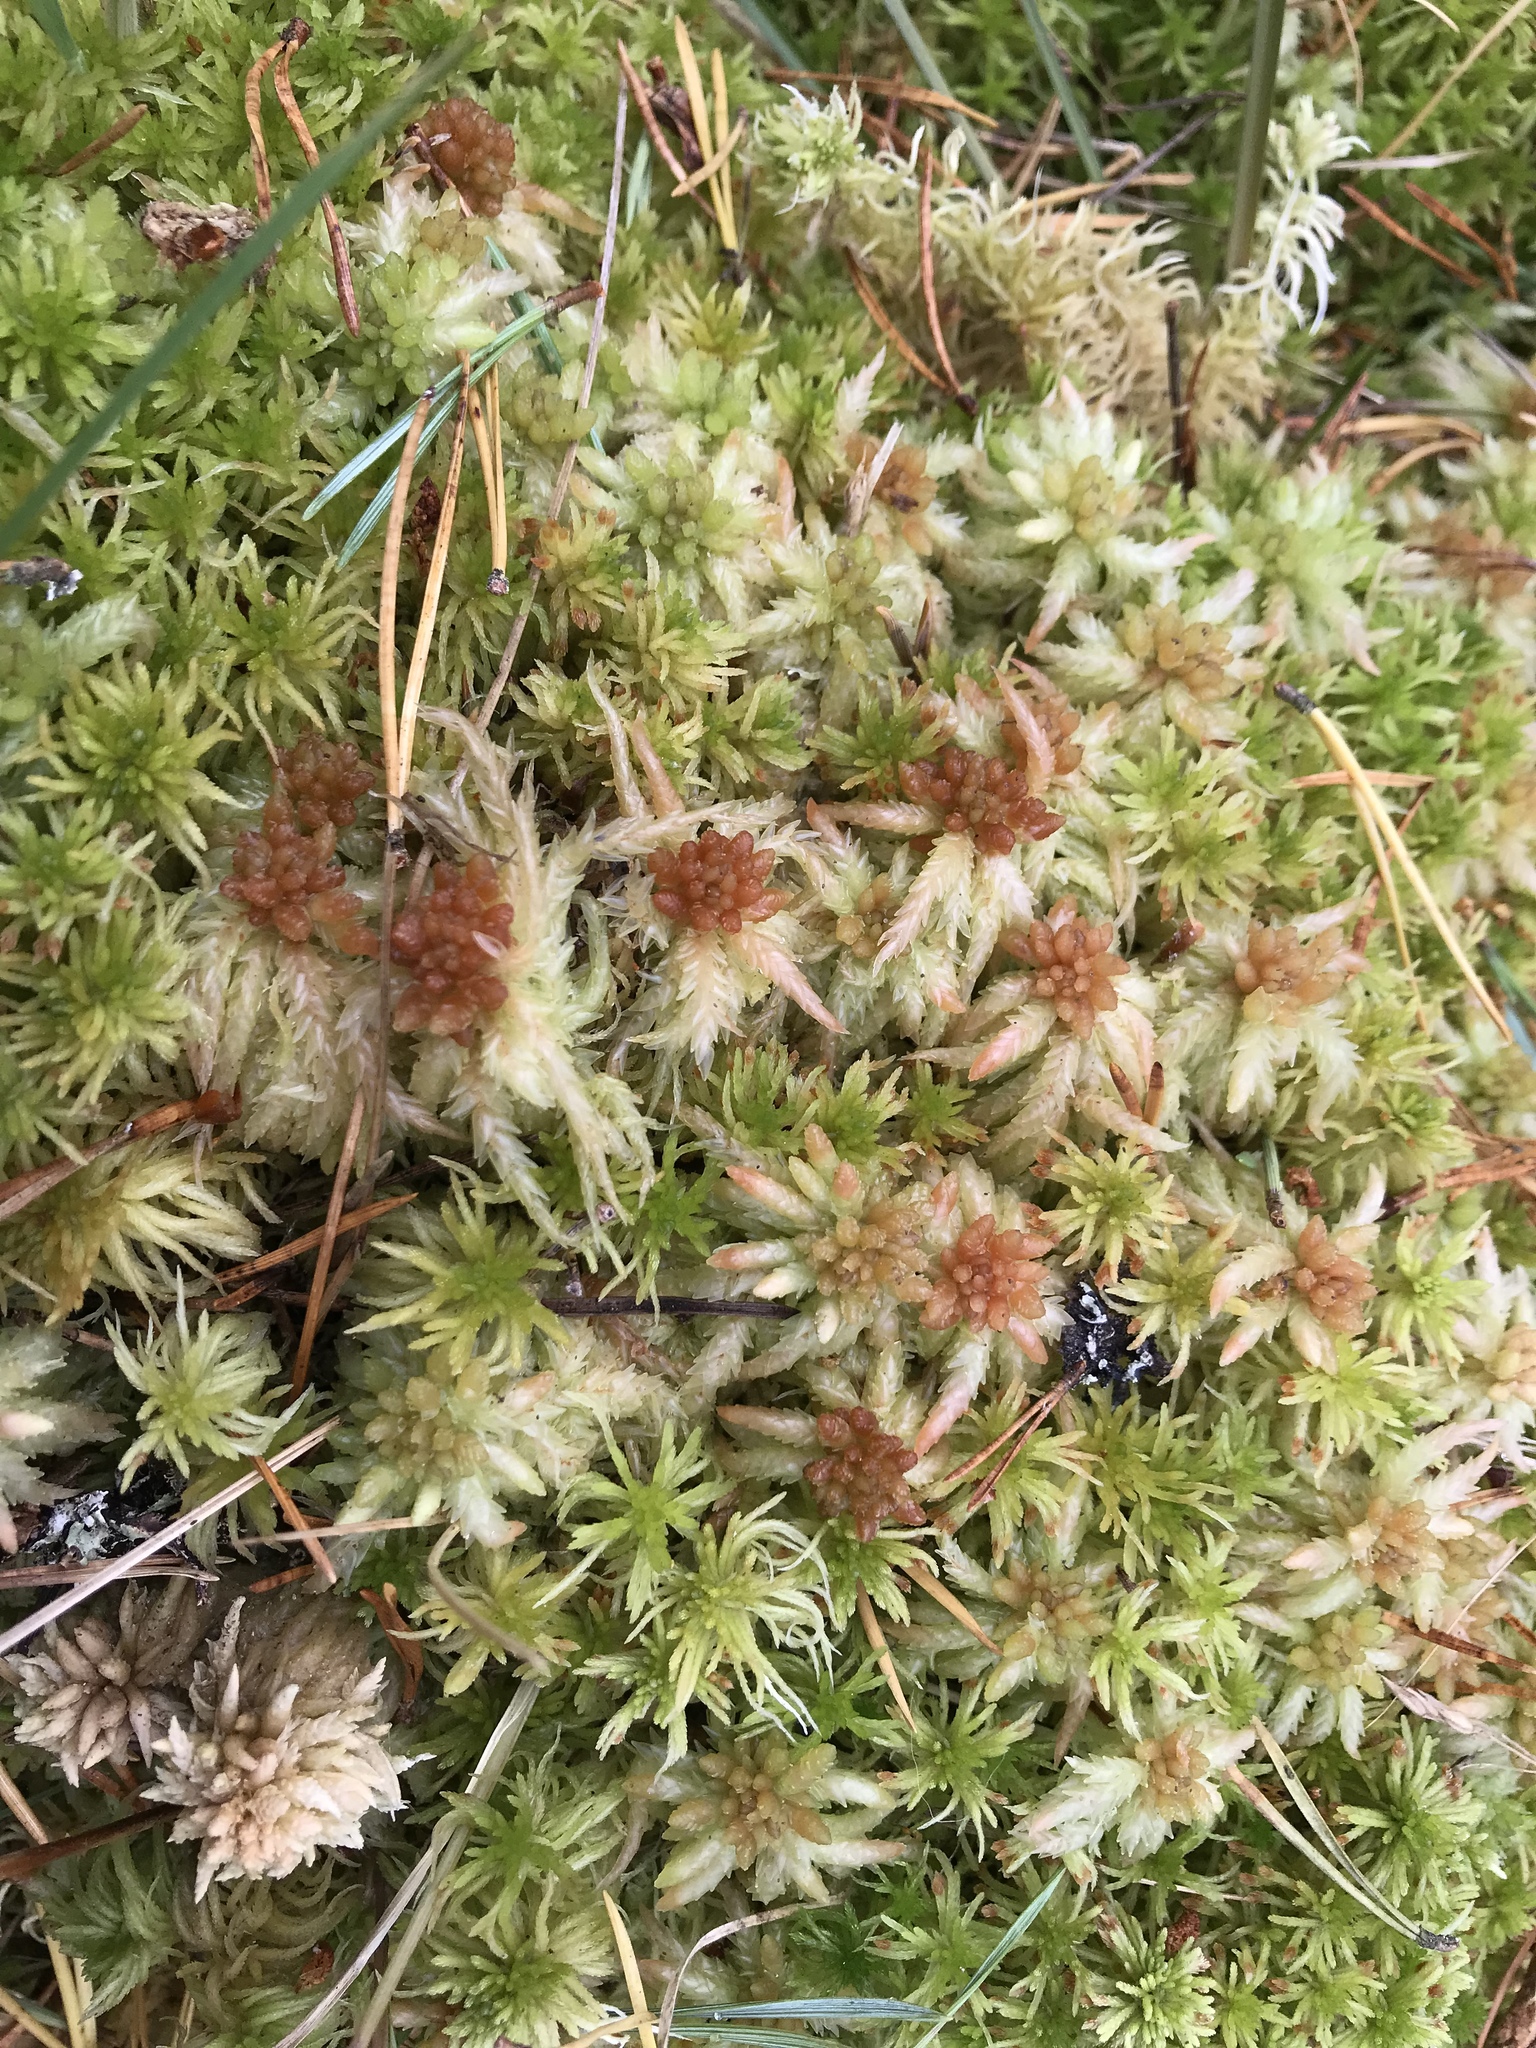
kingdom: Plantae
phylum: Bryophyta
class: Sphagnopsida
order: Sphagnales
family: Sphagnaceae
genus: Sphagnum
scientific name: Sphagnum palustre
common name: Blunt-leaved bog-moss
